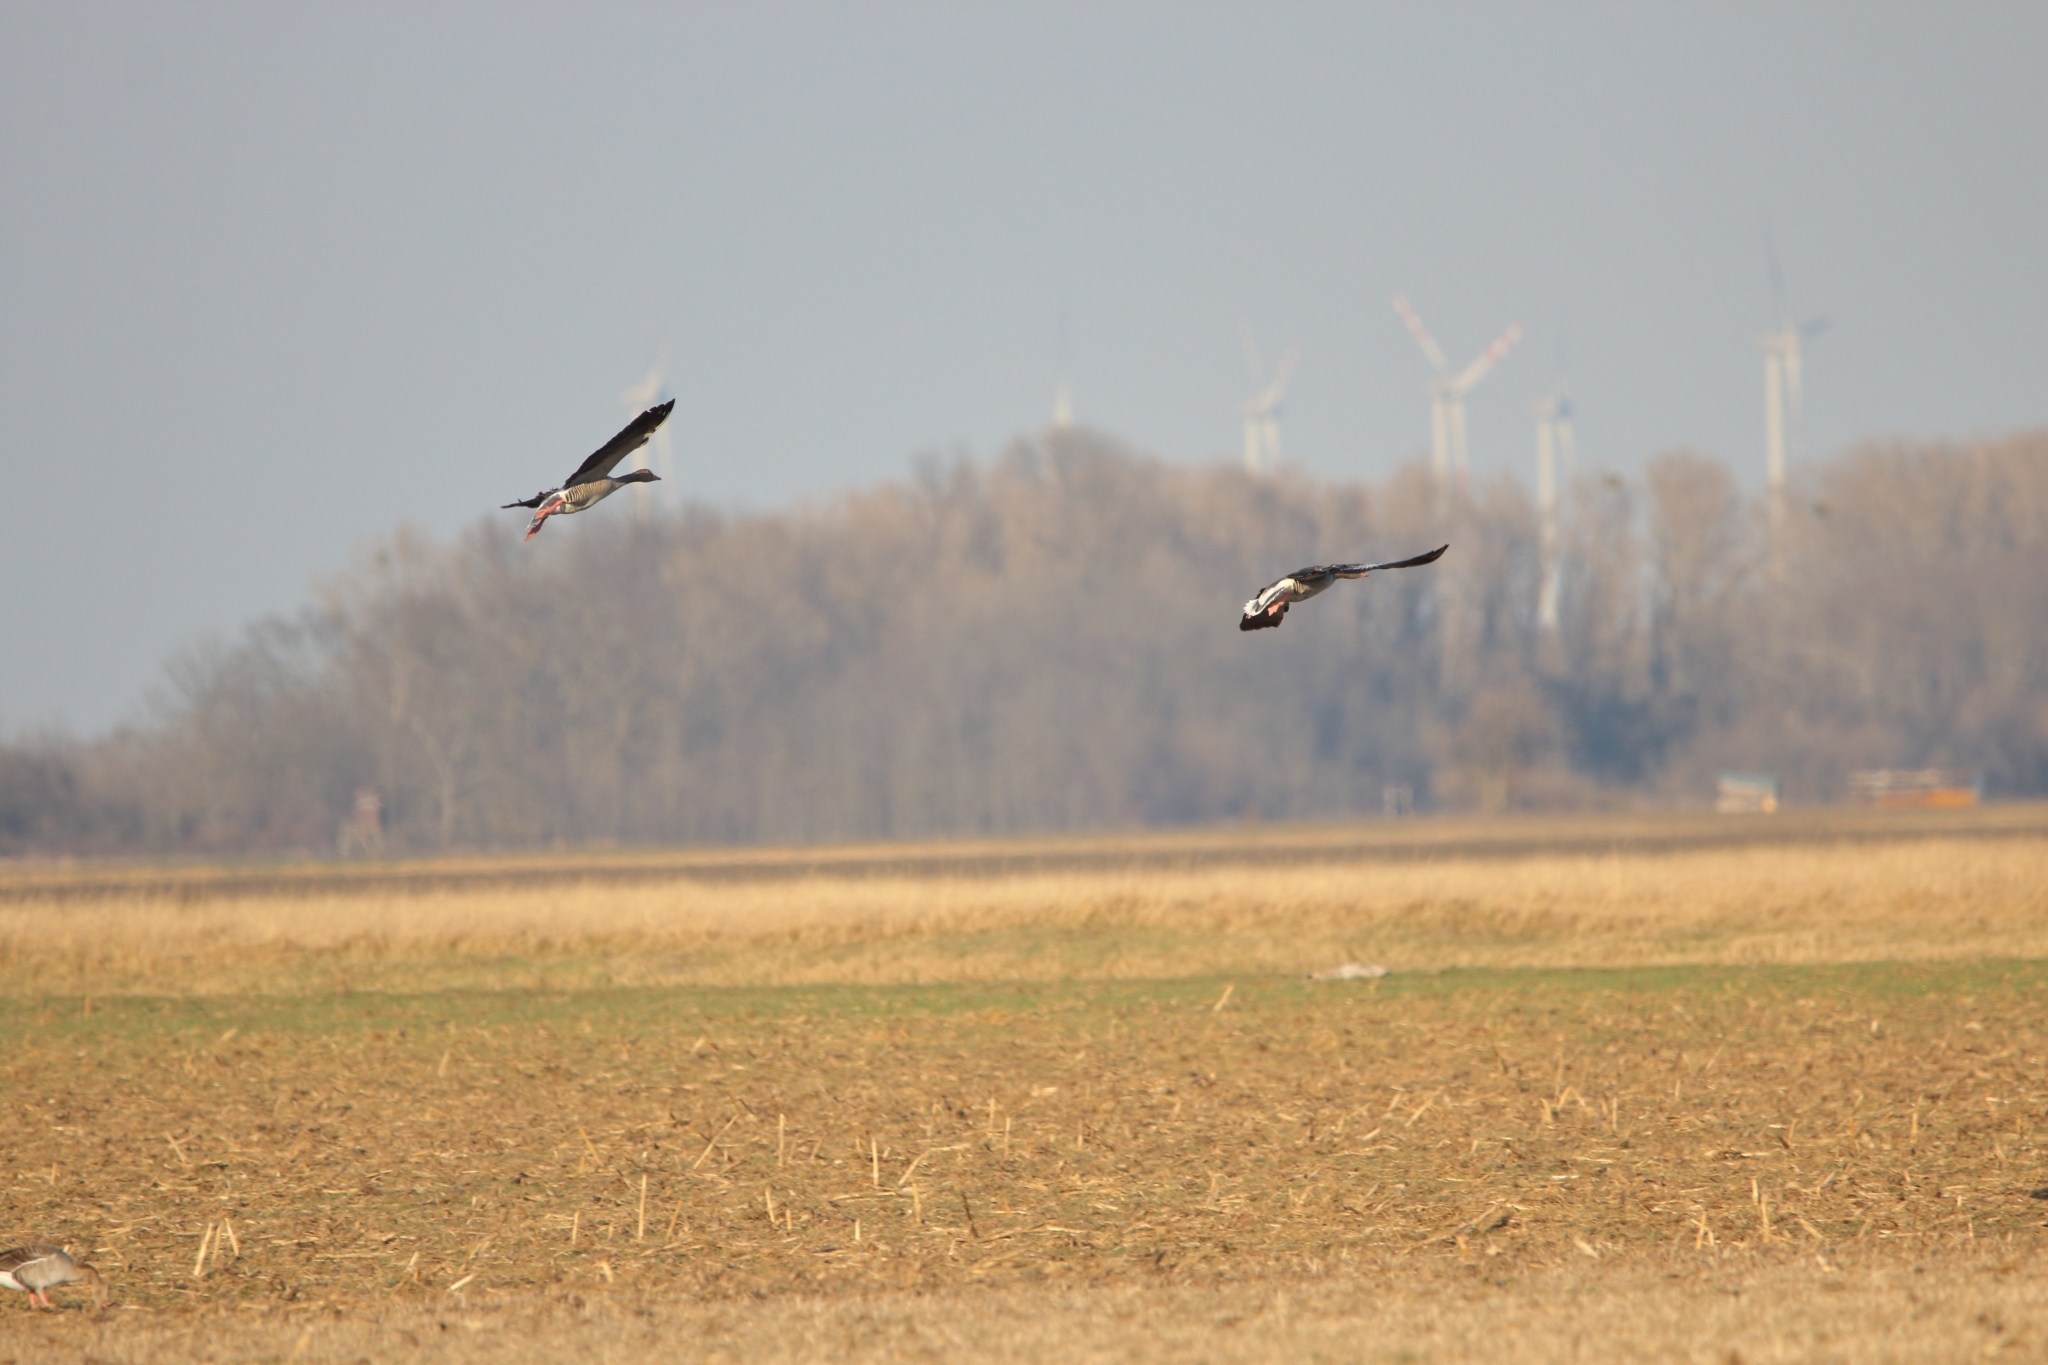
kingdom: Animalia
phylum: Chordata
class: Aves
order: Anseriformes
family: Anatidae
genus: Anser
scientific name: Anser anser
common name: Greylag goose
